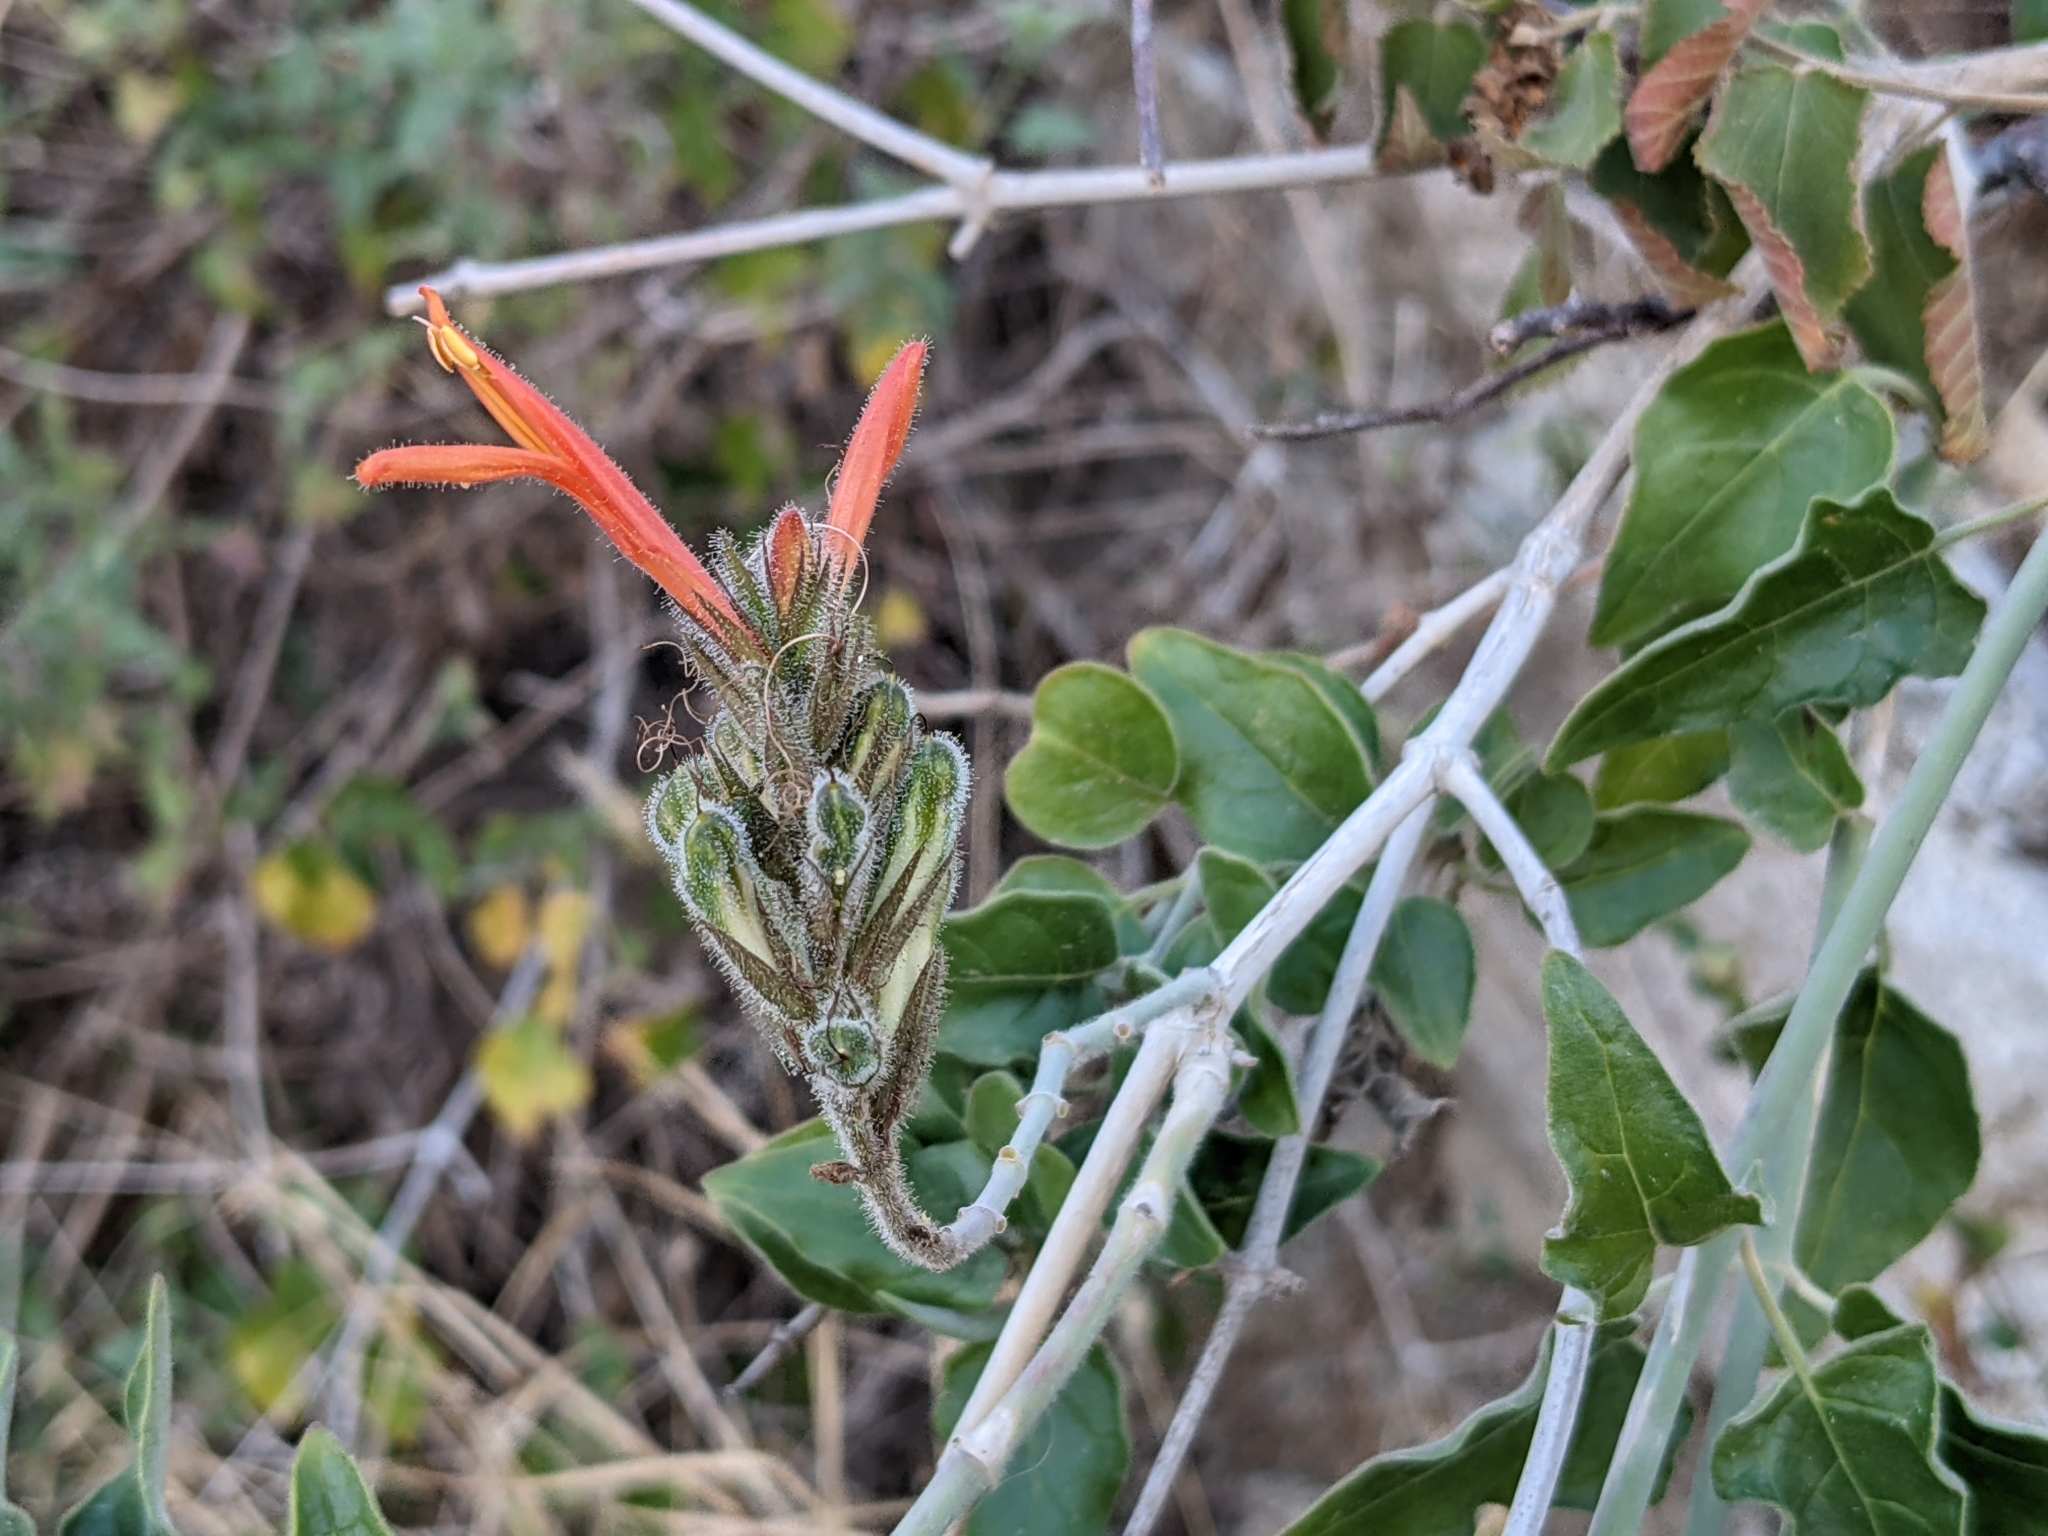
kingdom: Plantae
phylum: Tracheophyta
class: Magnoliopsida
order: Lamiales
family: Acanthaceae
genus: Justicia
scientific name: Justicia californica
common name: Chuparosa-honeysuckle
